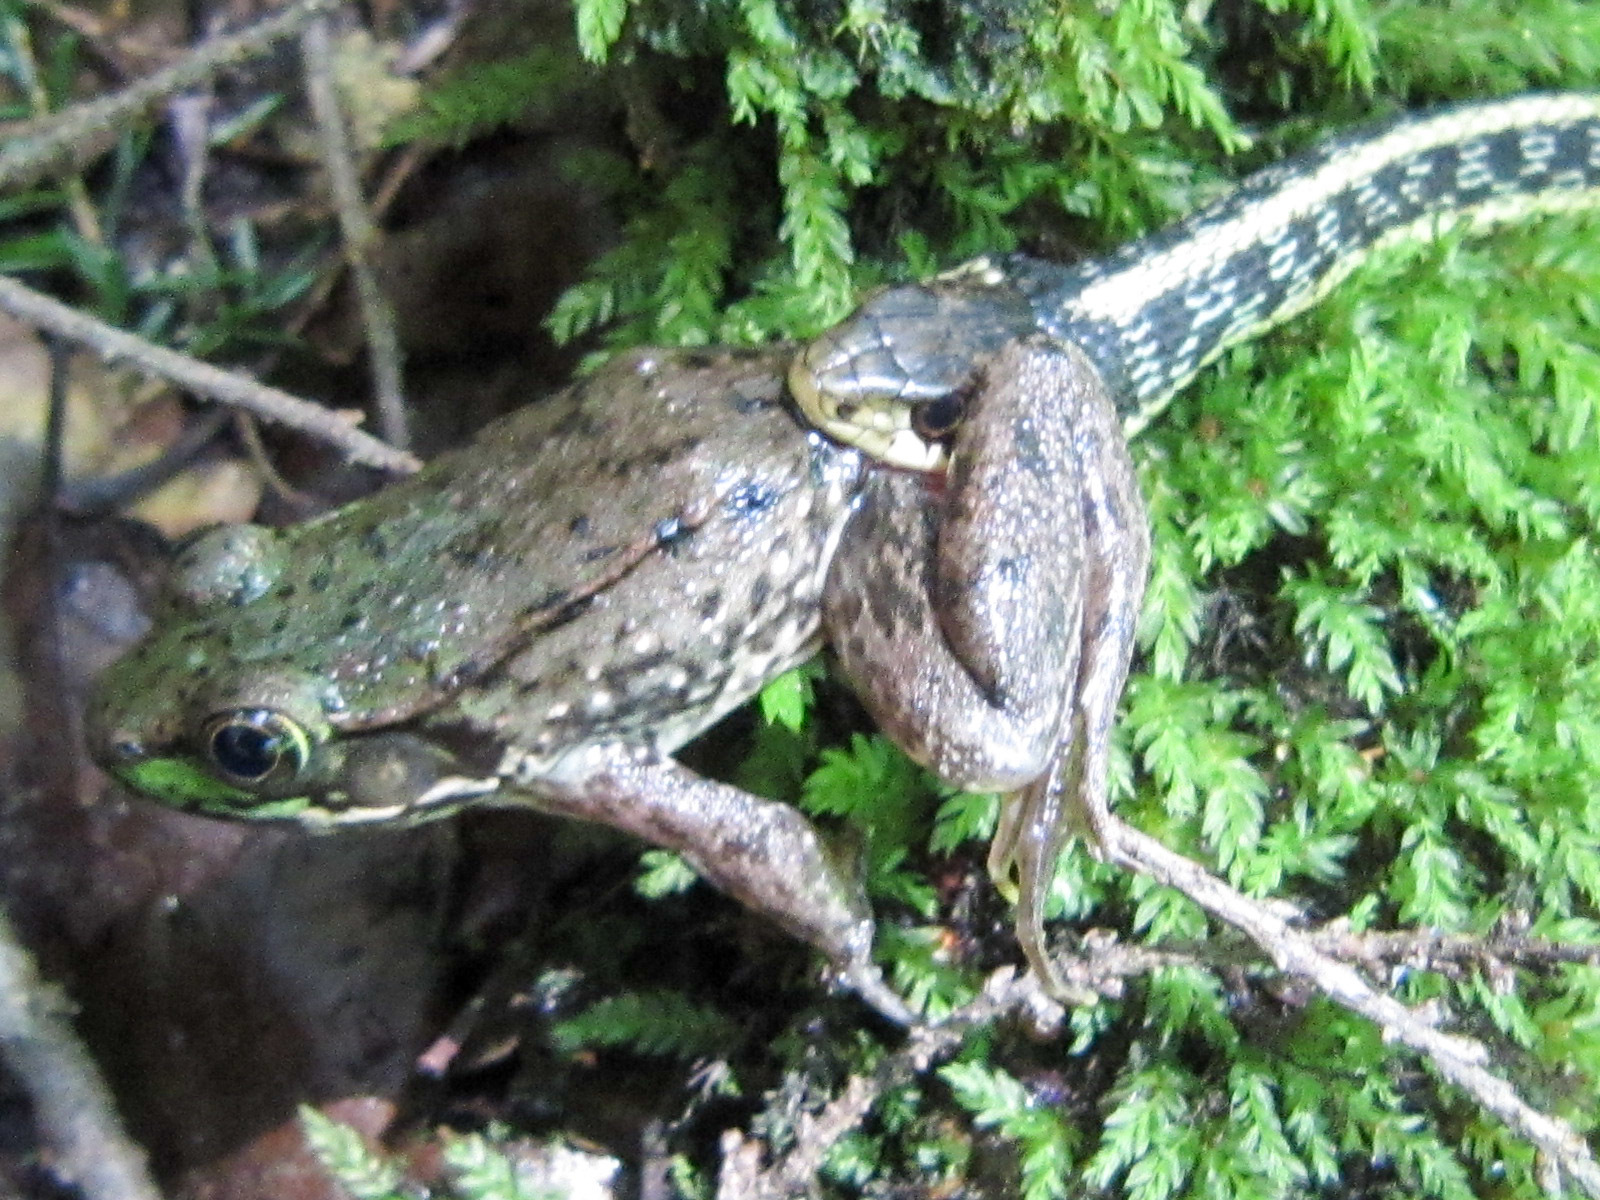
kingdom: Animalia
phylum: Chordata
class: Squamata
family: Colubridae
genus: Thamnophis
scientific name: Thamnophis sirtalis
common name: Common garter snake
